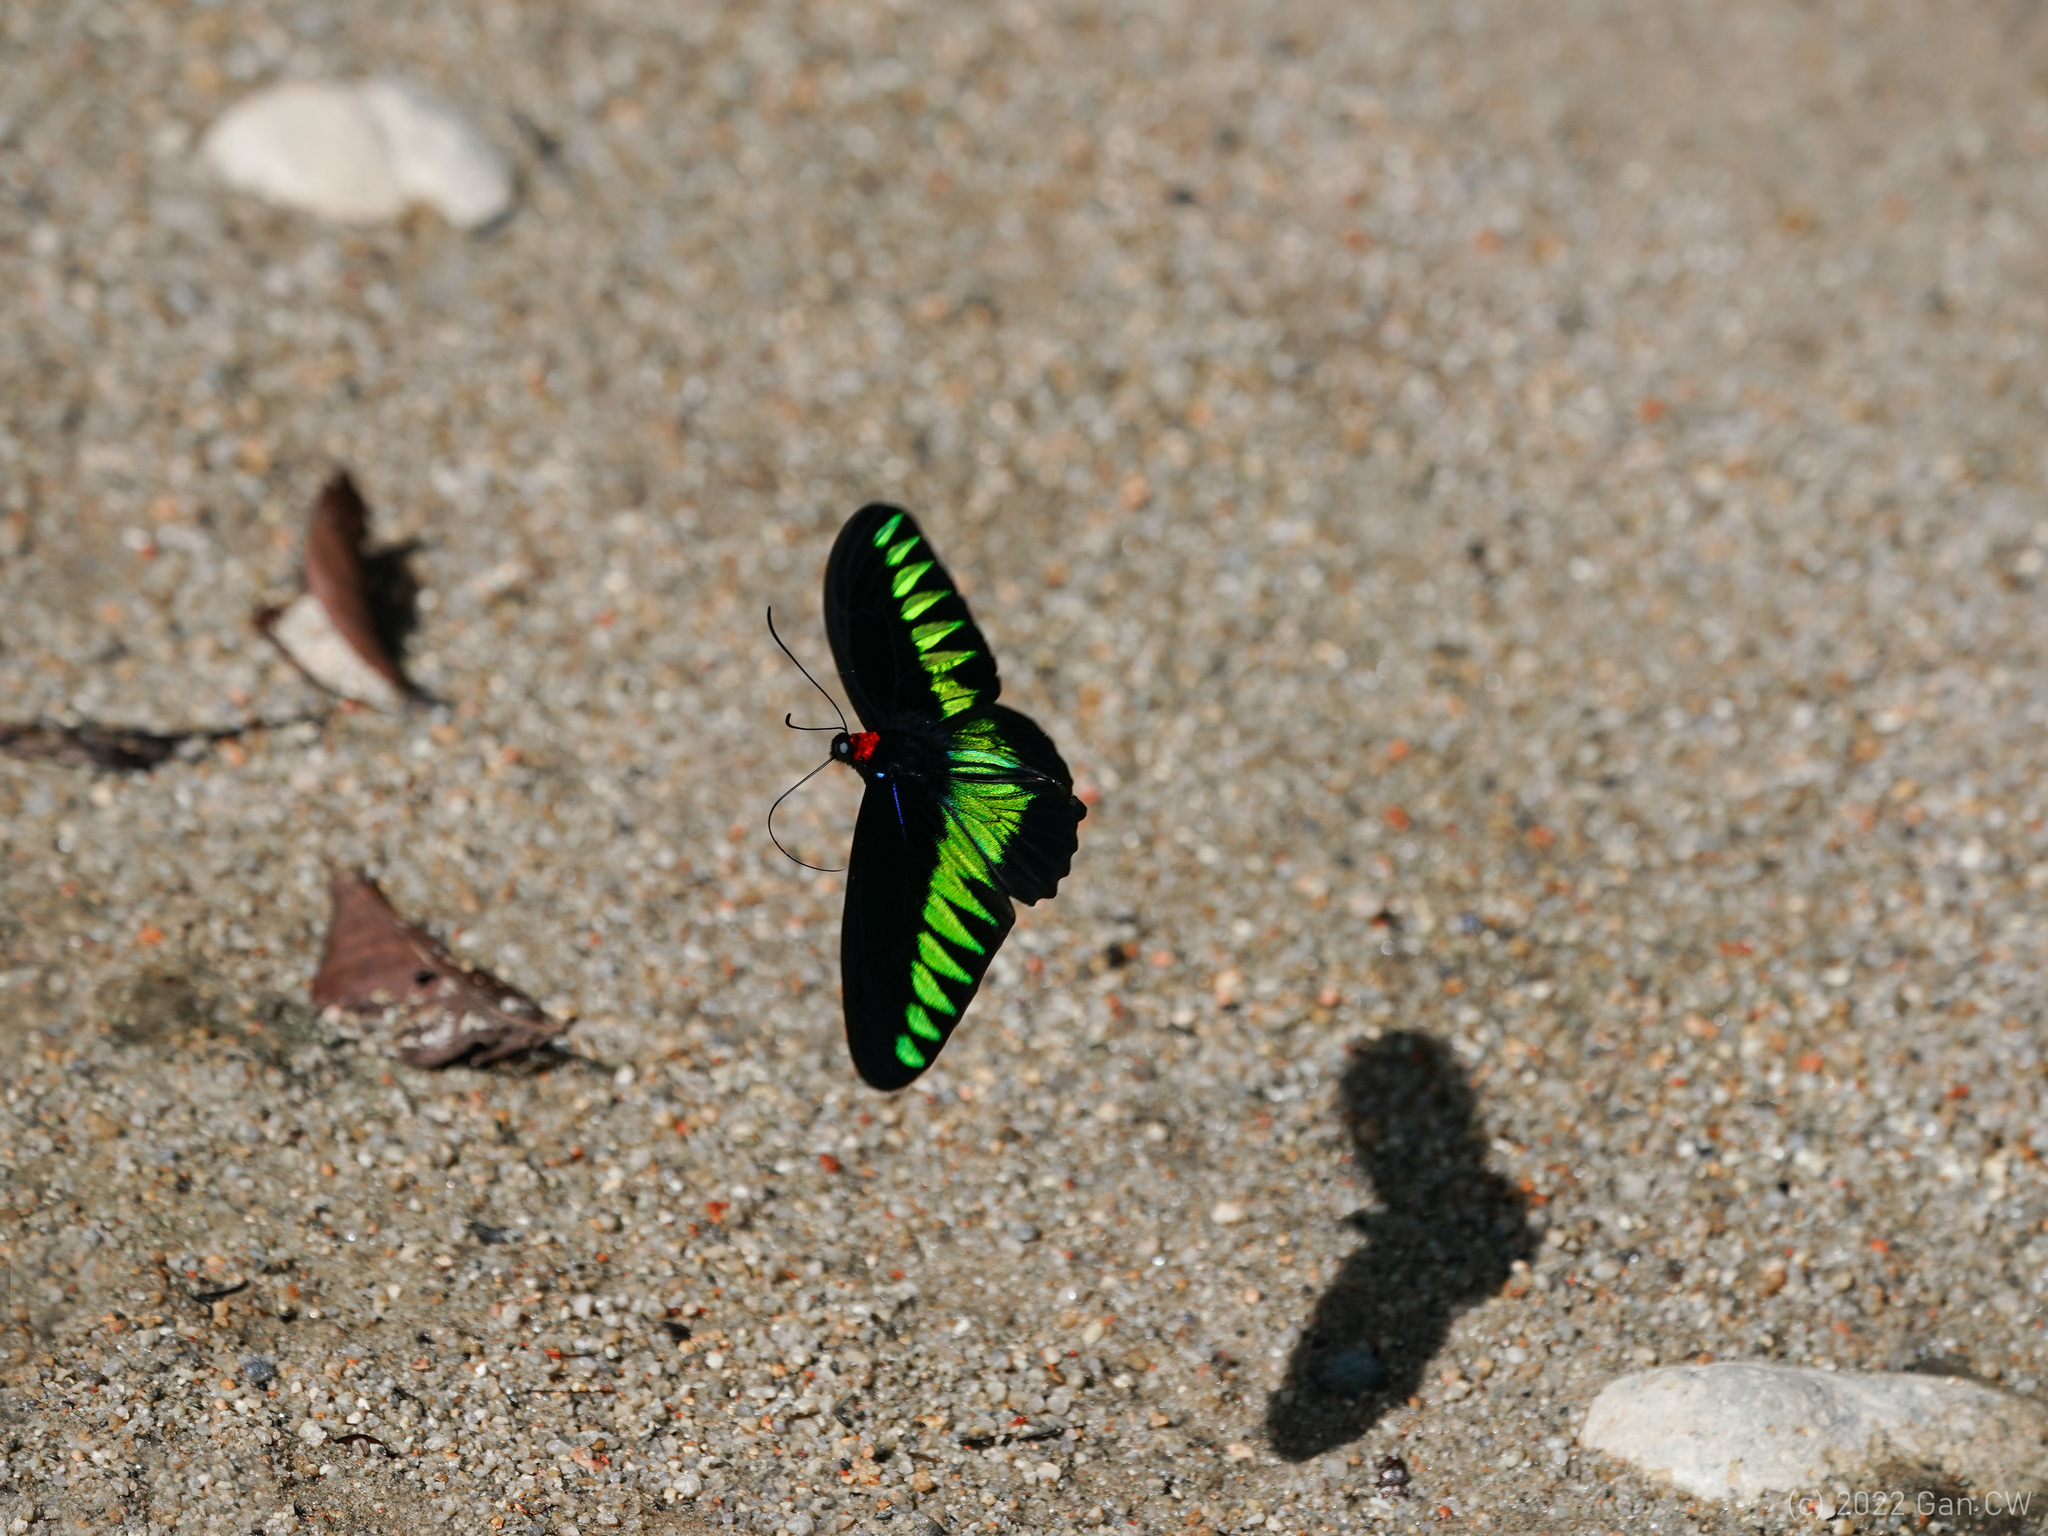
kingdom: Animalia
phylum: Arthropoda
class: Insecta
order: Lepidoptera
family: Papilionidae
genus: Trogonoptera
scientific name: Trogonoptera brookiana
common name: Raja brooke's birdwing
